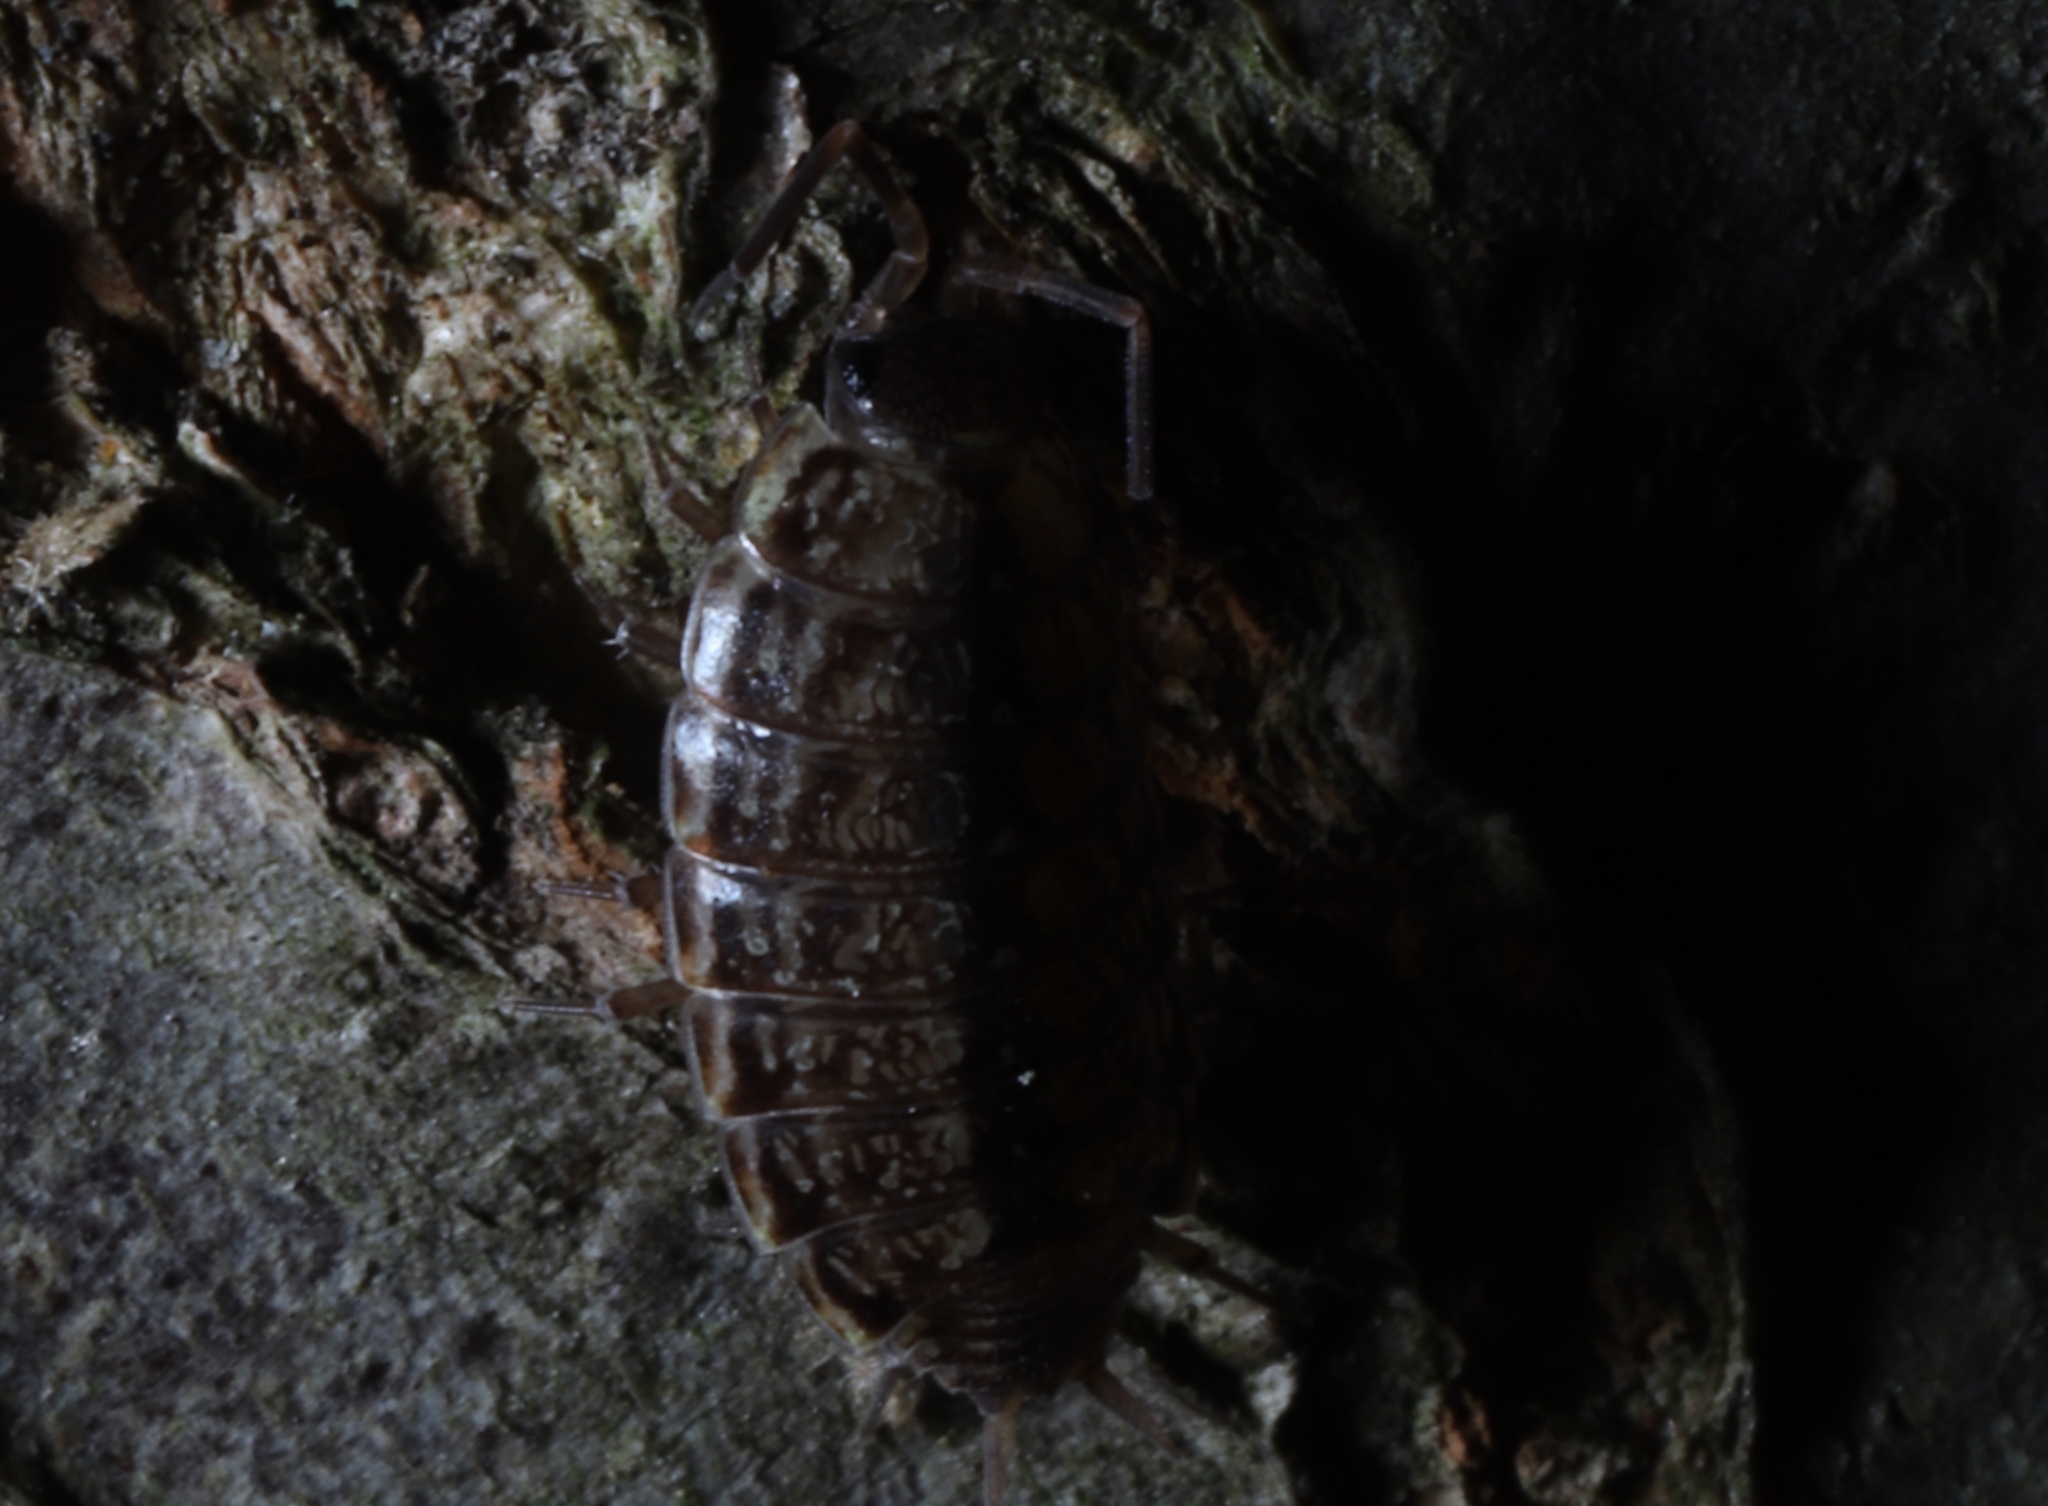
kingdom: Animalia
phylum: Arthropoda
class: Malacostraca
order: Isopoda
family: Philosciidae
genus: Philoscia
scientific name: Philoscia muscorum
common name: Common striped woodlouse
